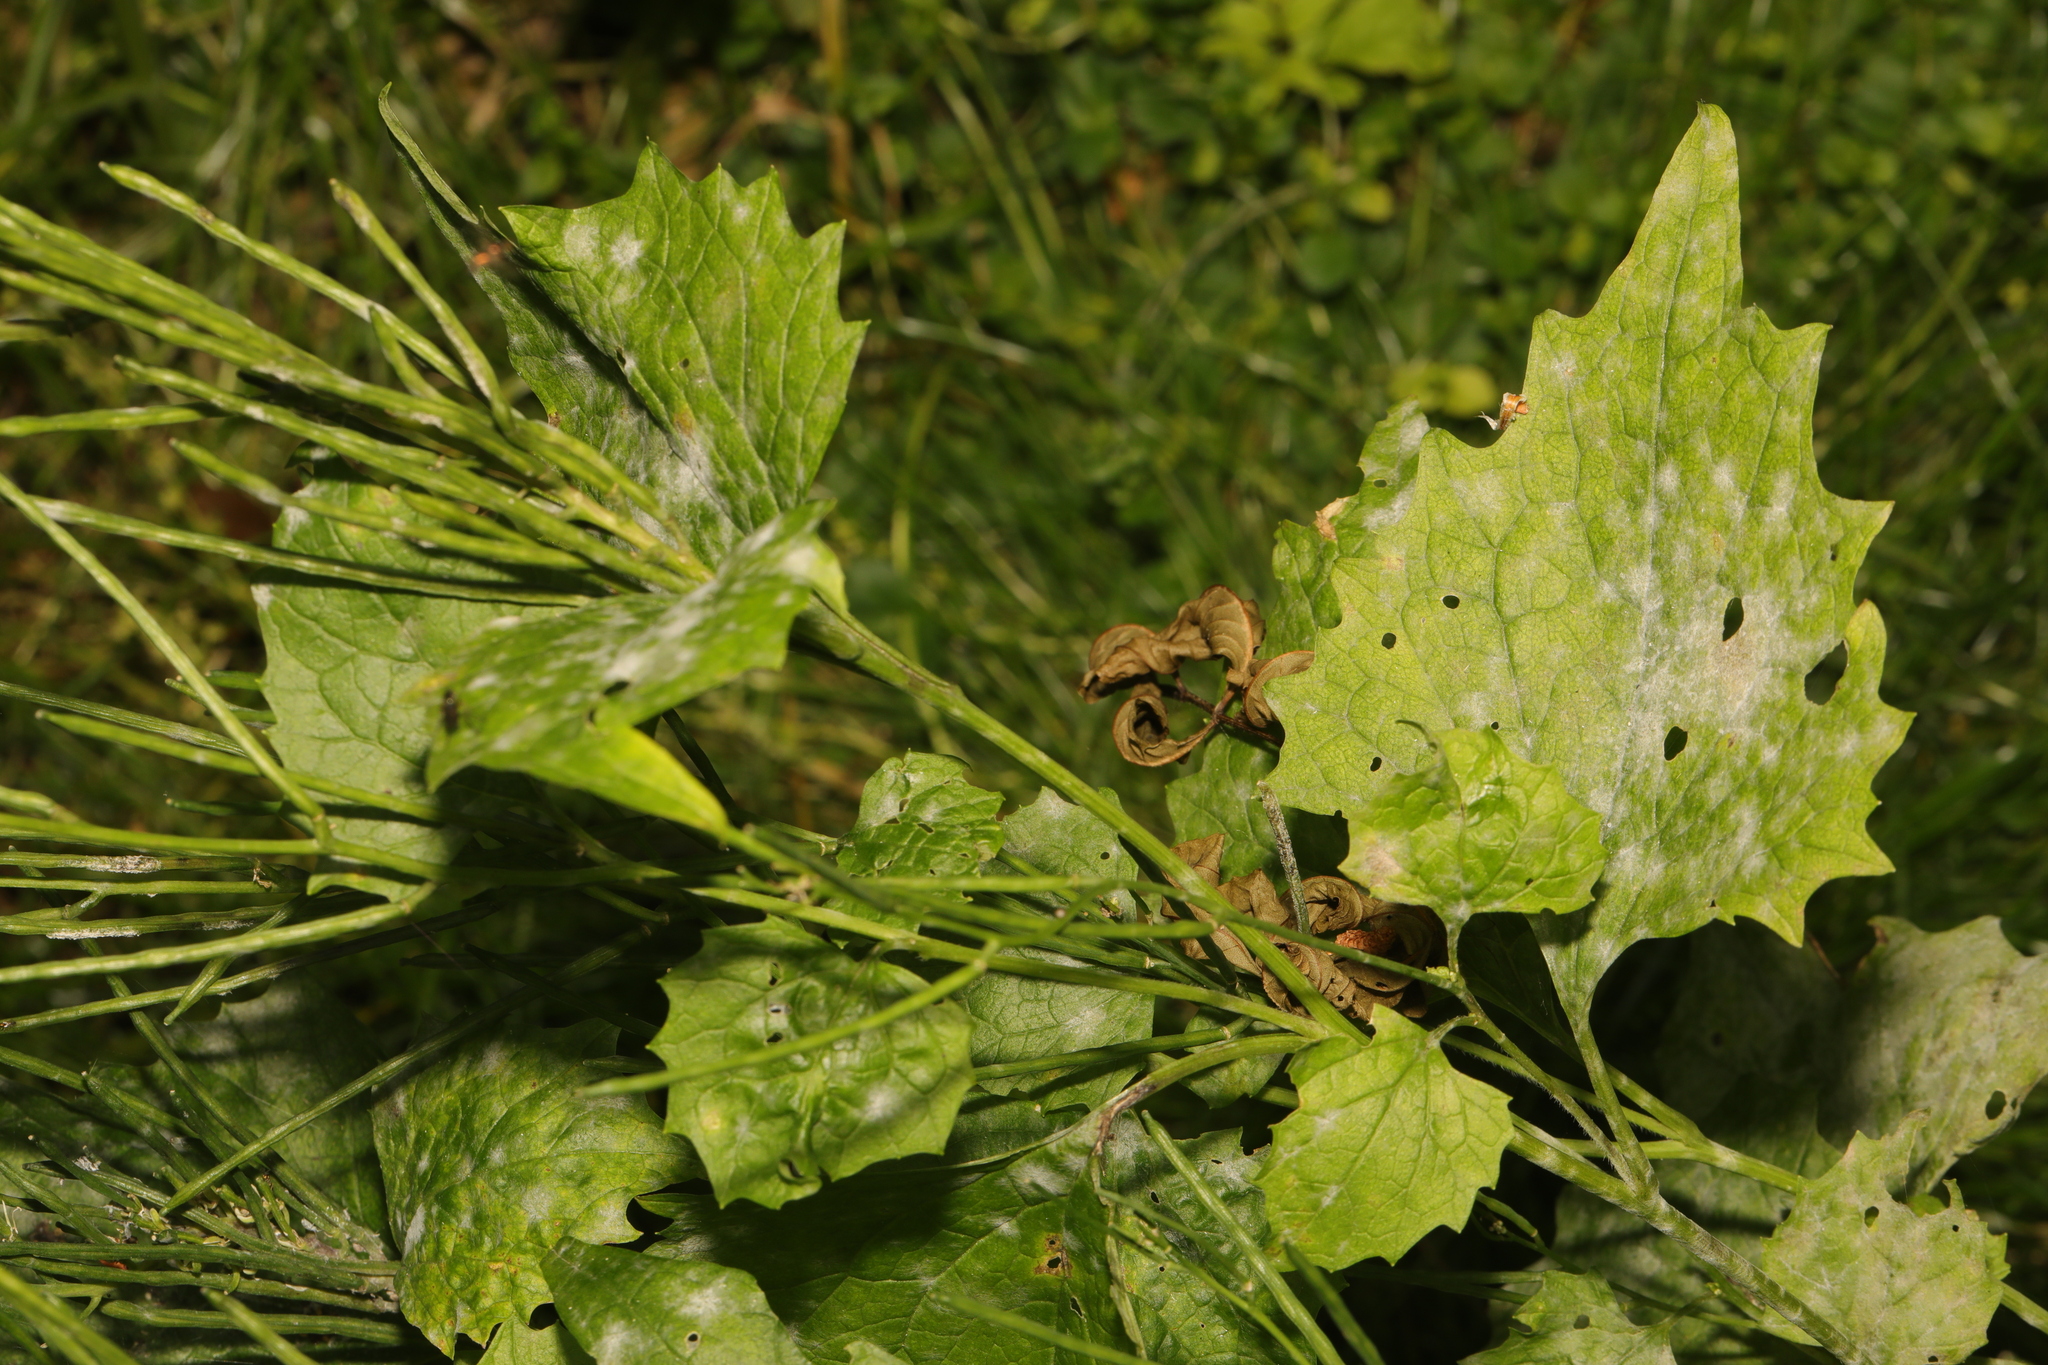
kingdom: Plantae
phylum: Tracheophyta
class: Magnoliopsida
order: Brassicales
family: Brassicaceae
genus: Alliaria
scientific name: Alliaria petiolata
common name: Garlic mustard
